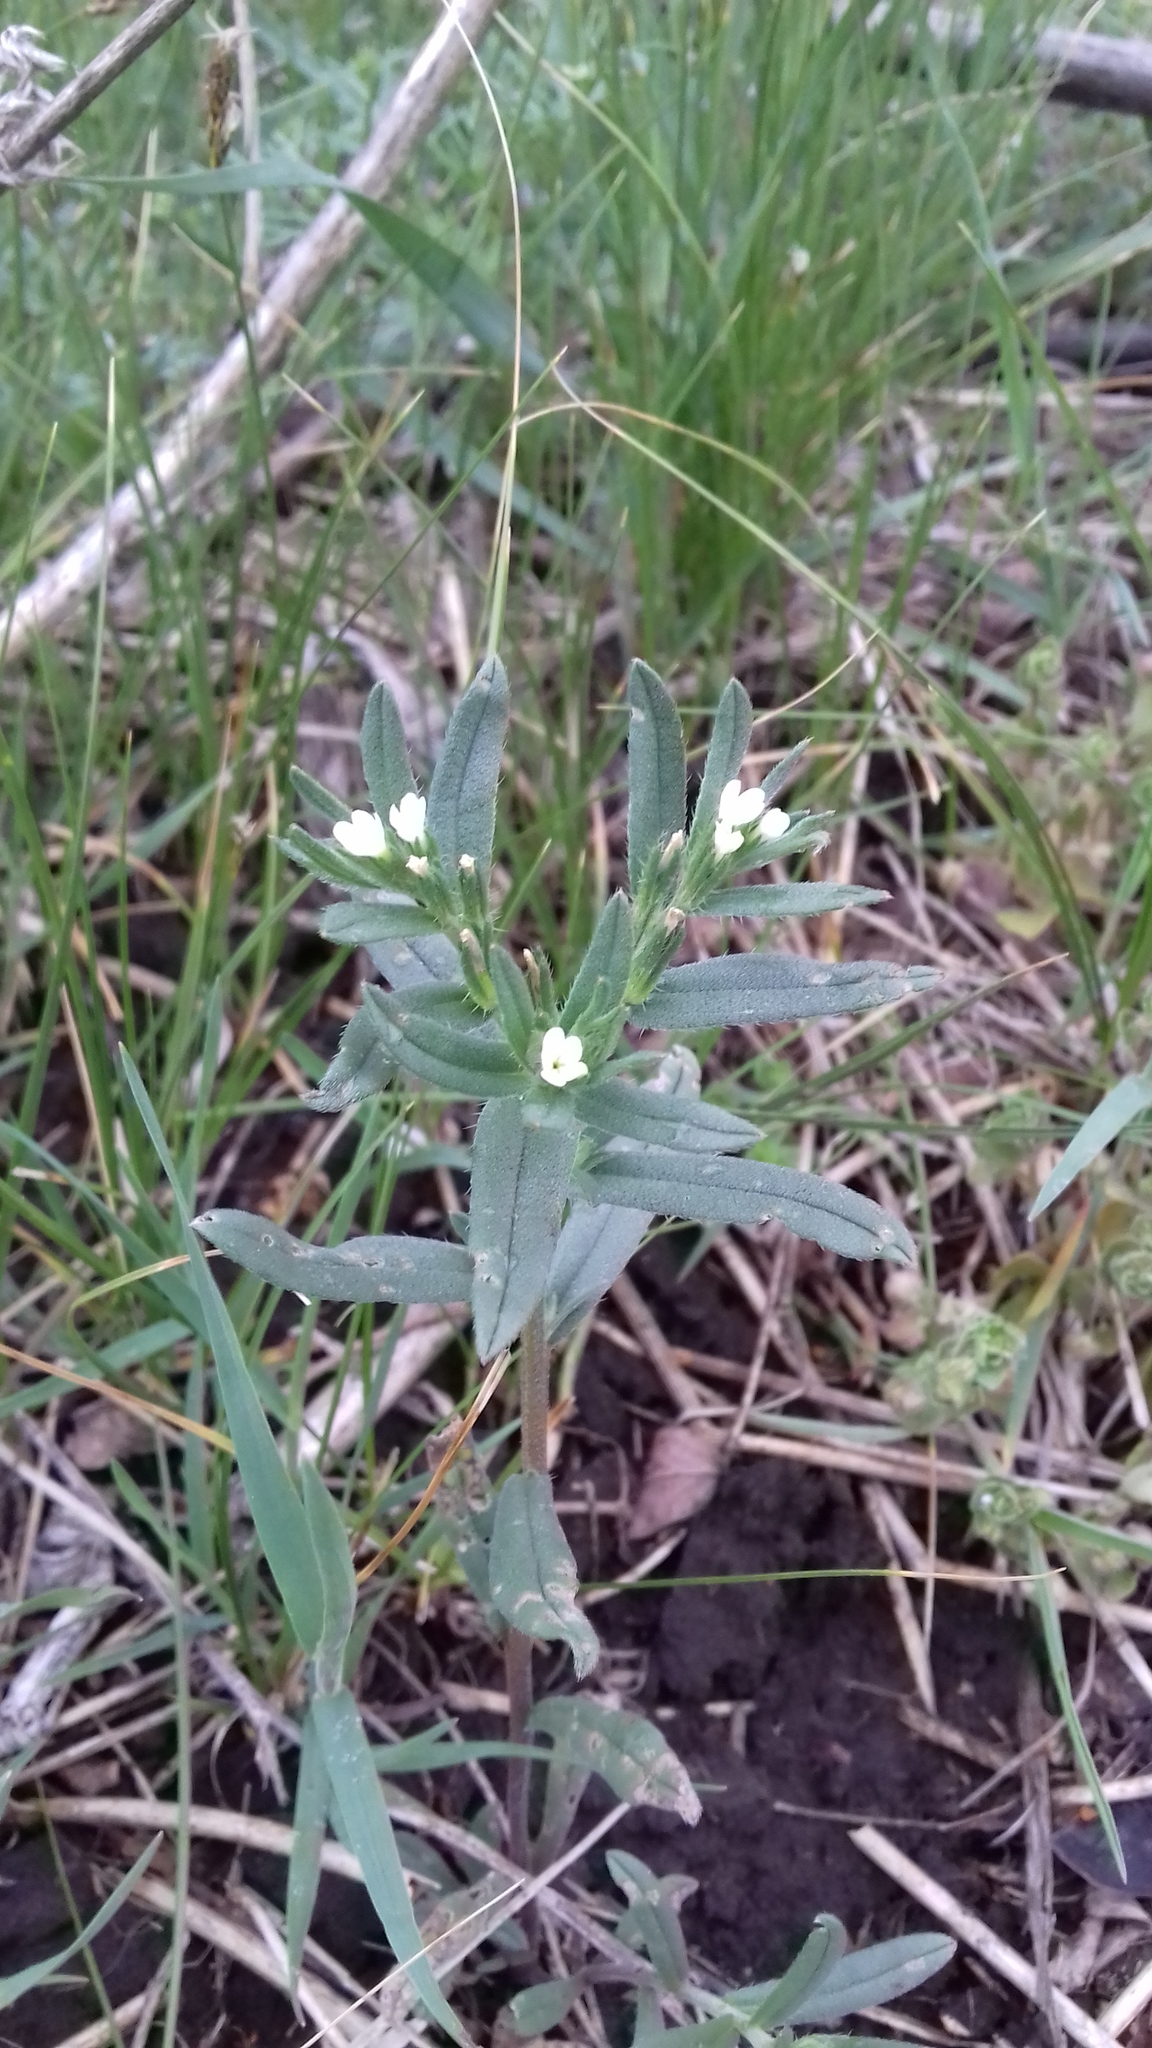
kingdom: Plantae
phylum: Tracheophyta
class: Magnoliopsida
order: Boraginales
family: Boraginaceae
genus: Buglossoides
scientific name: Buglossoides arvensis
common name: Corn gromwell
